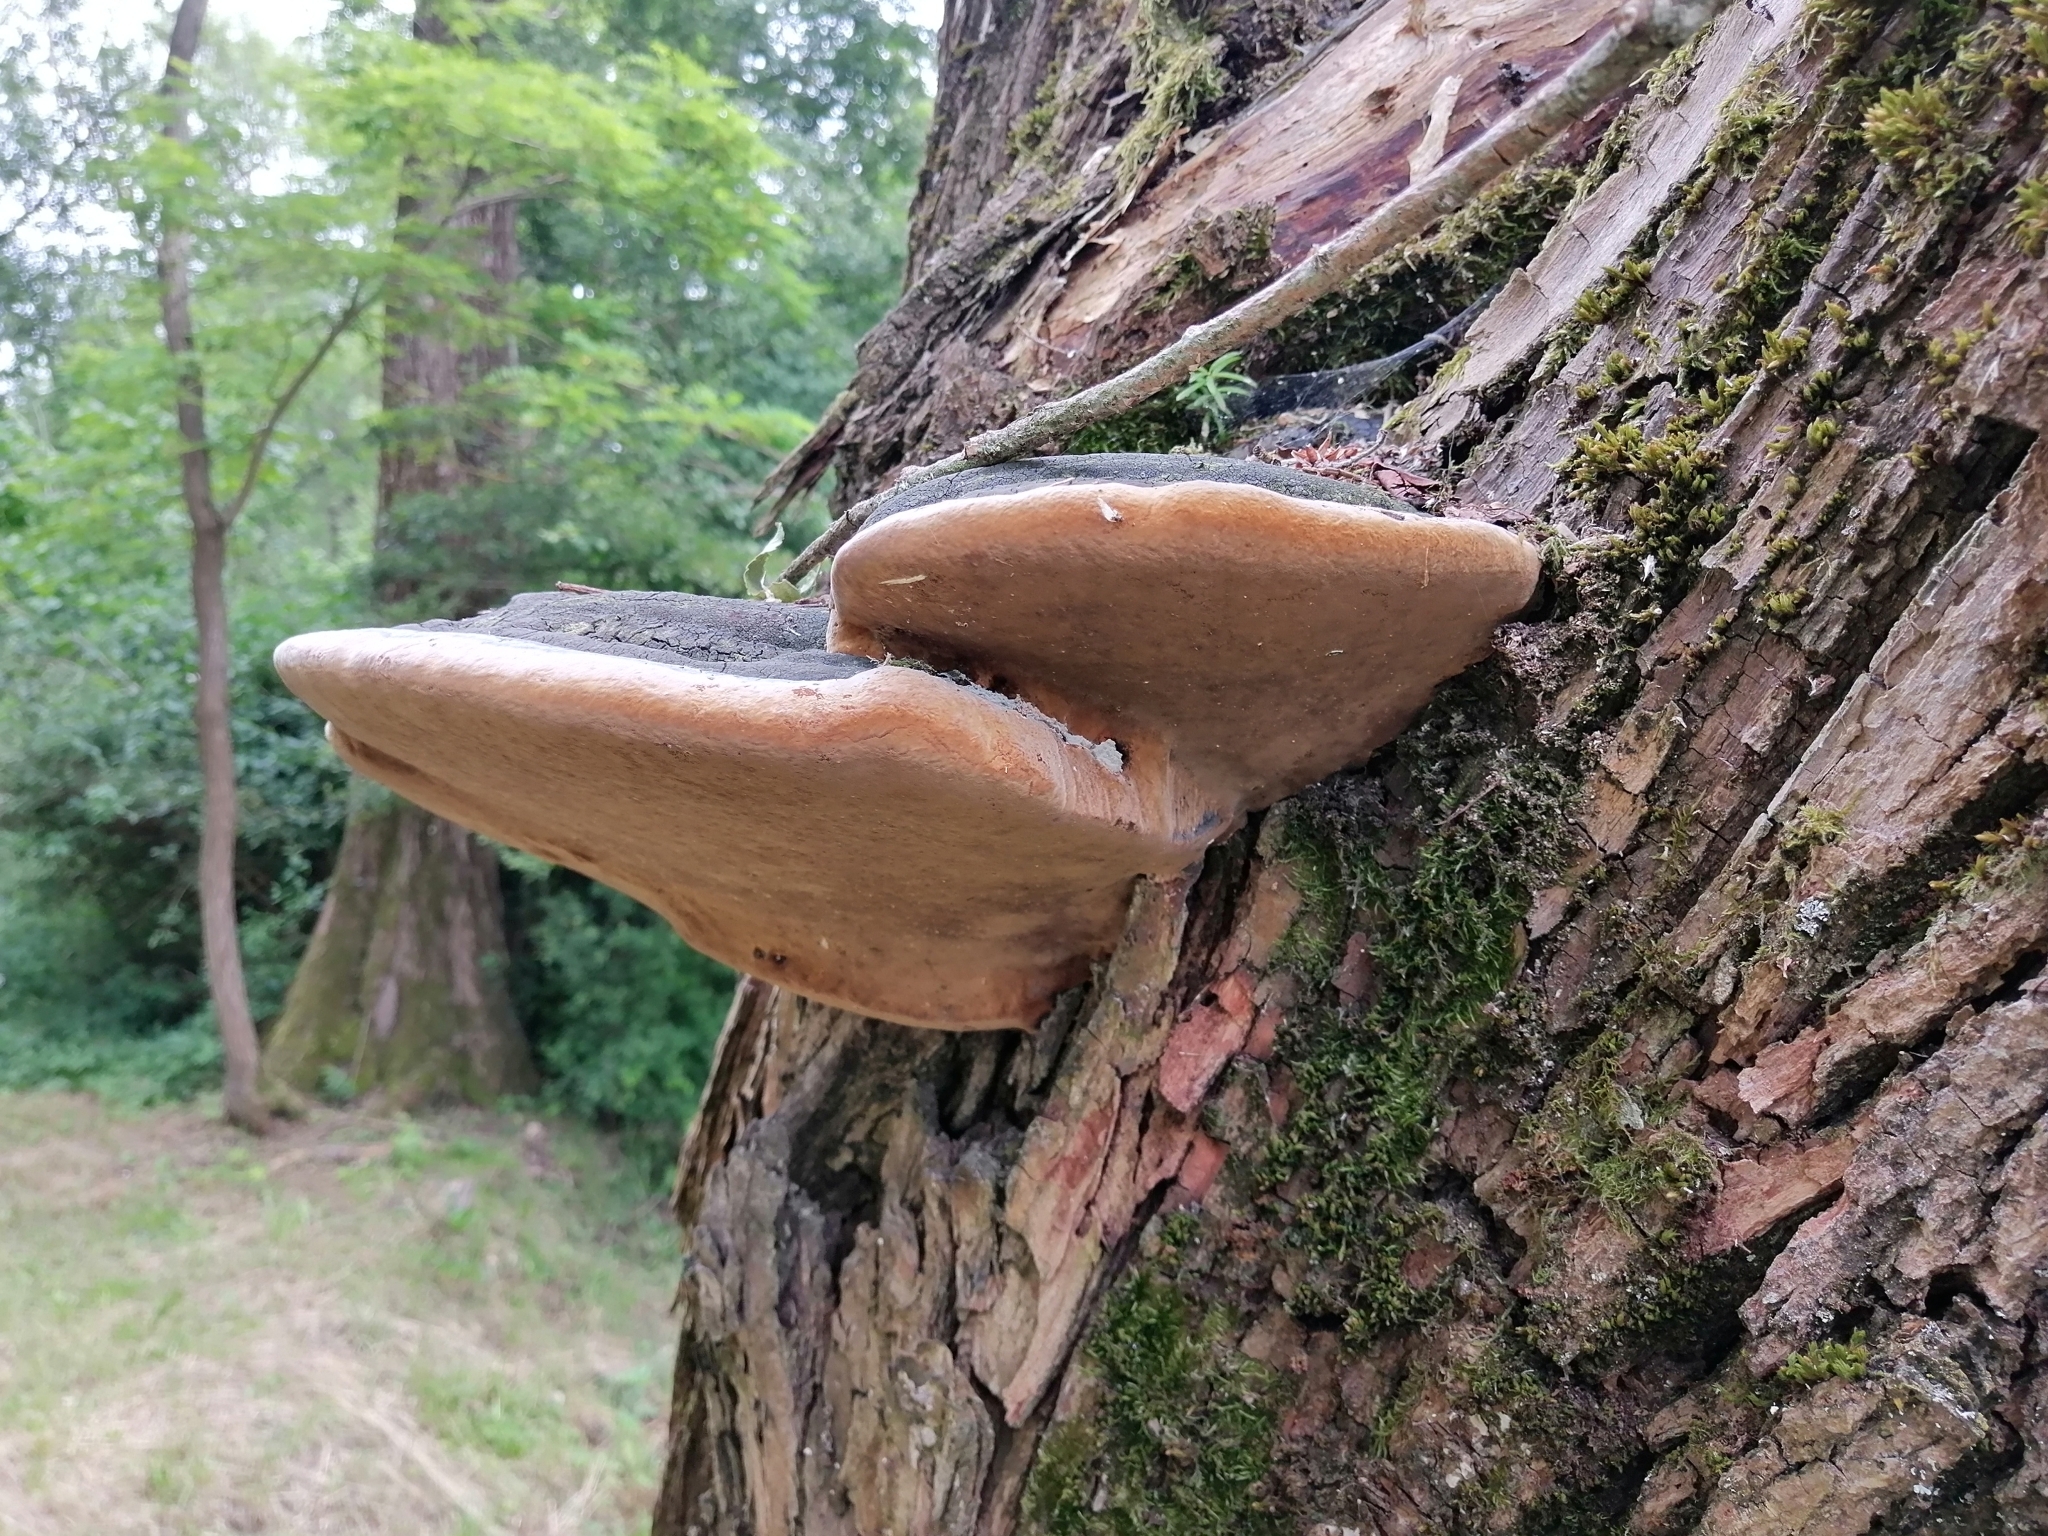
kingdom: Fungi
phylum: Basidiomycota
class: Agaricomycetes
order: Hymenochaetales
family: Hymenochaetaceae
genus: Phellinus
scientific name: Phellinus igniarius
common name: Willow bracket
